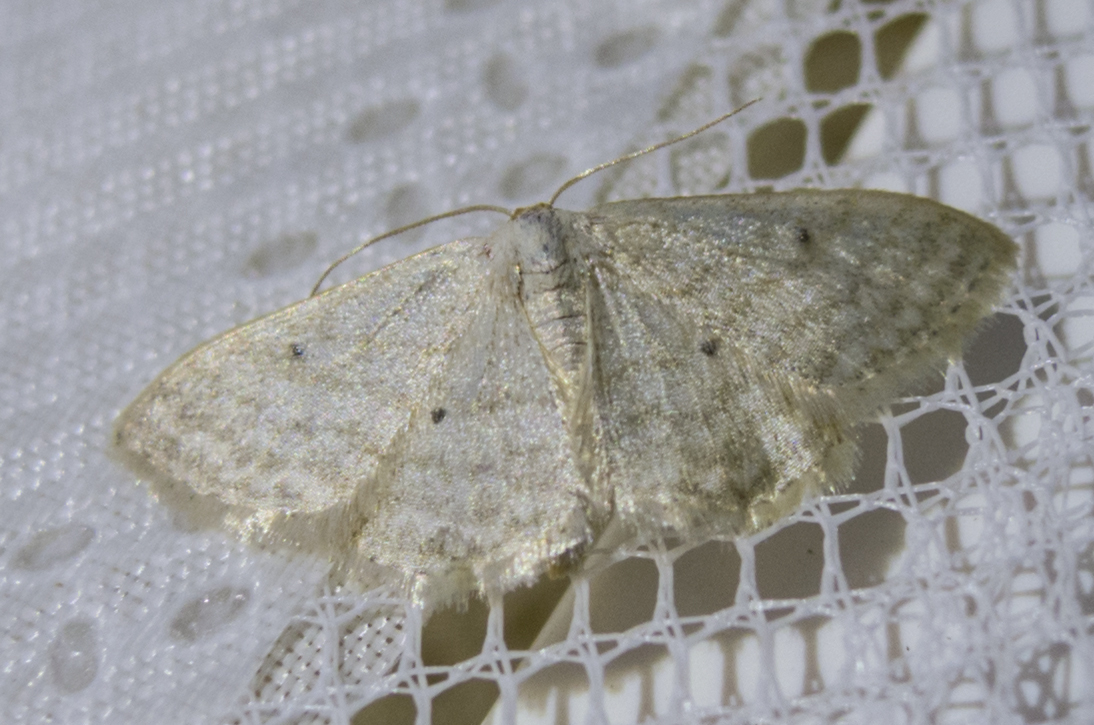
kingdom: Animalia
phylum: Arthropoda
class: Insecta
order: Lepidoptera
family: Geometridae
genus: Idaea
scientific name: Idaea sylvestraria
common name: Dotted borded wave
